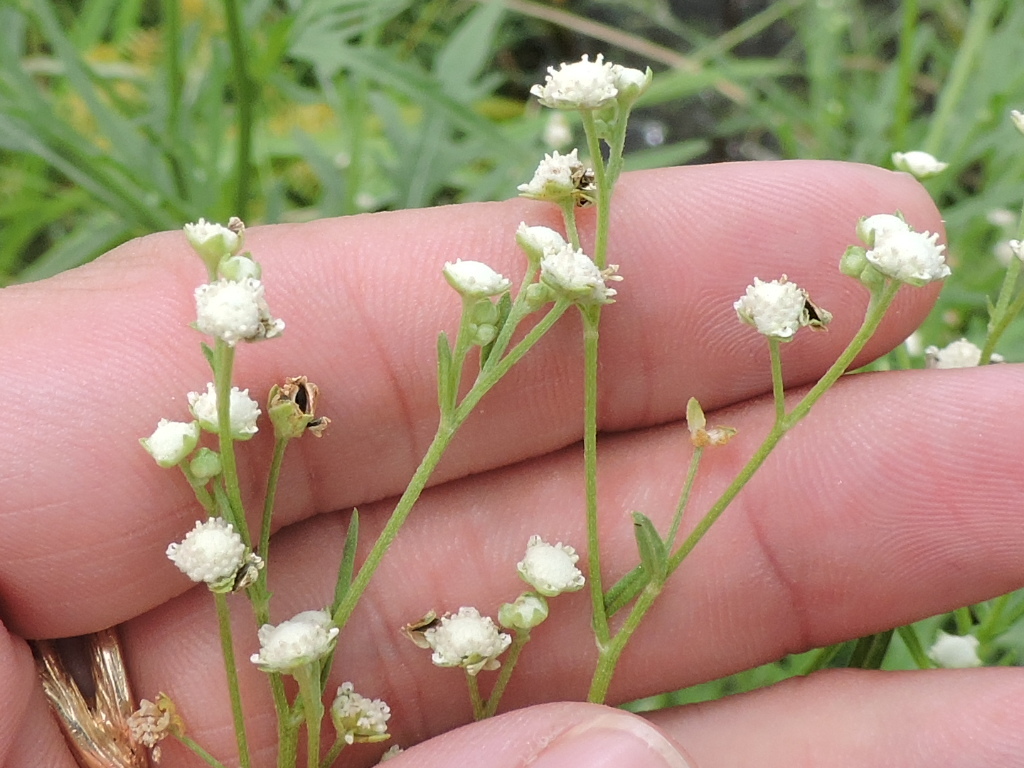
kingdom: Plantae
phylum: Tracheophyta
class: Magnoliopsida
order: Asterales
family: Asteraceae
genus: Parthenium
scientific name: Parthenium hysterophorus
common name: Santa maria feverfew
